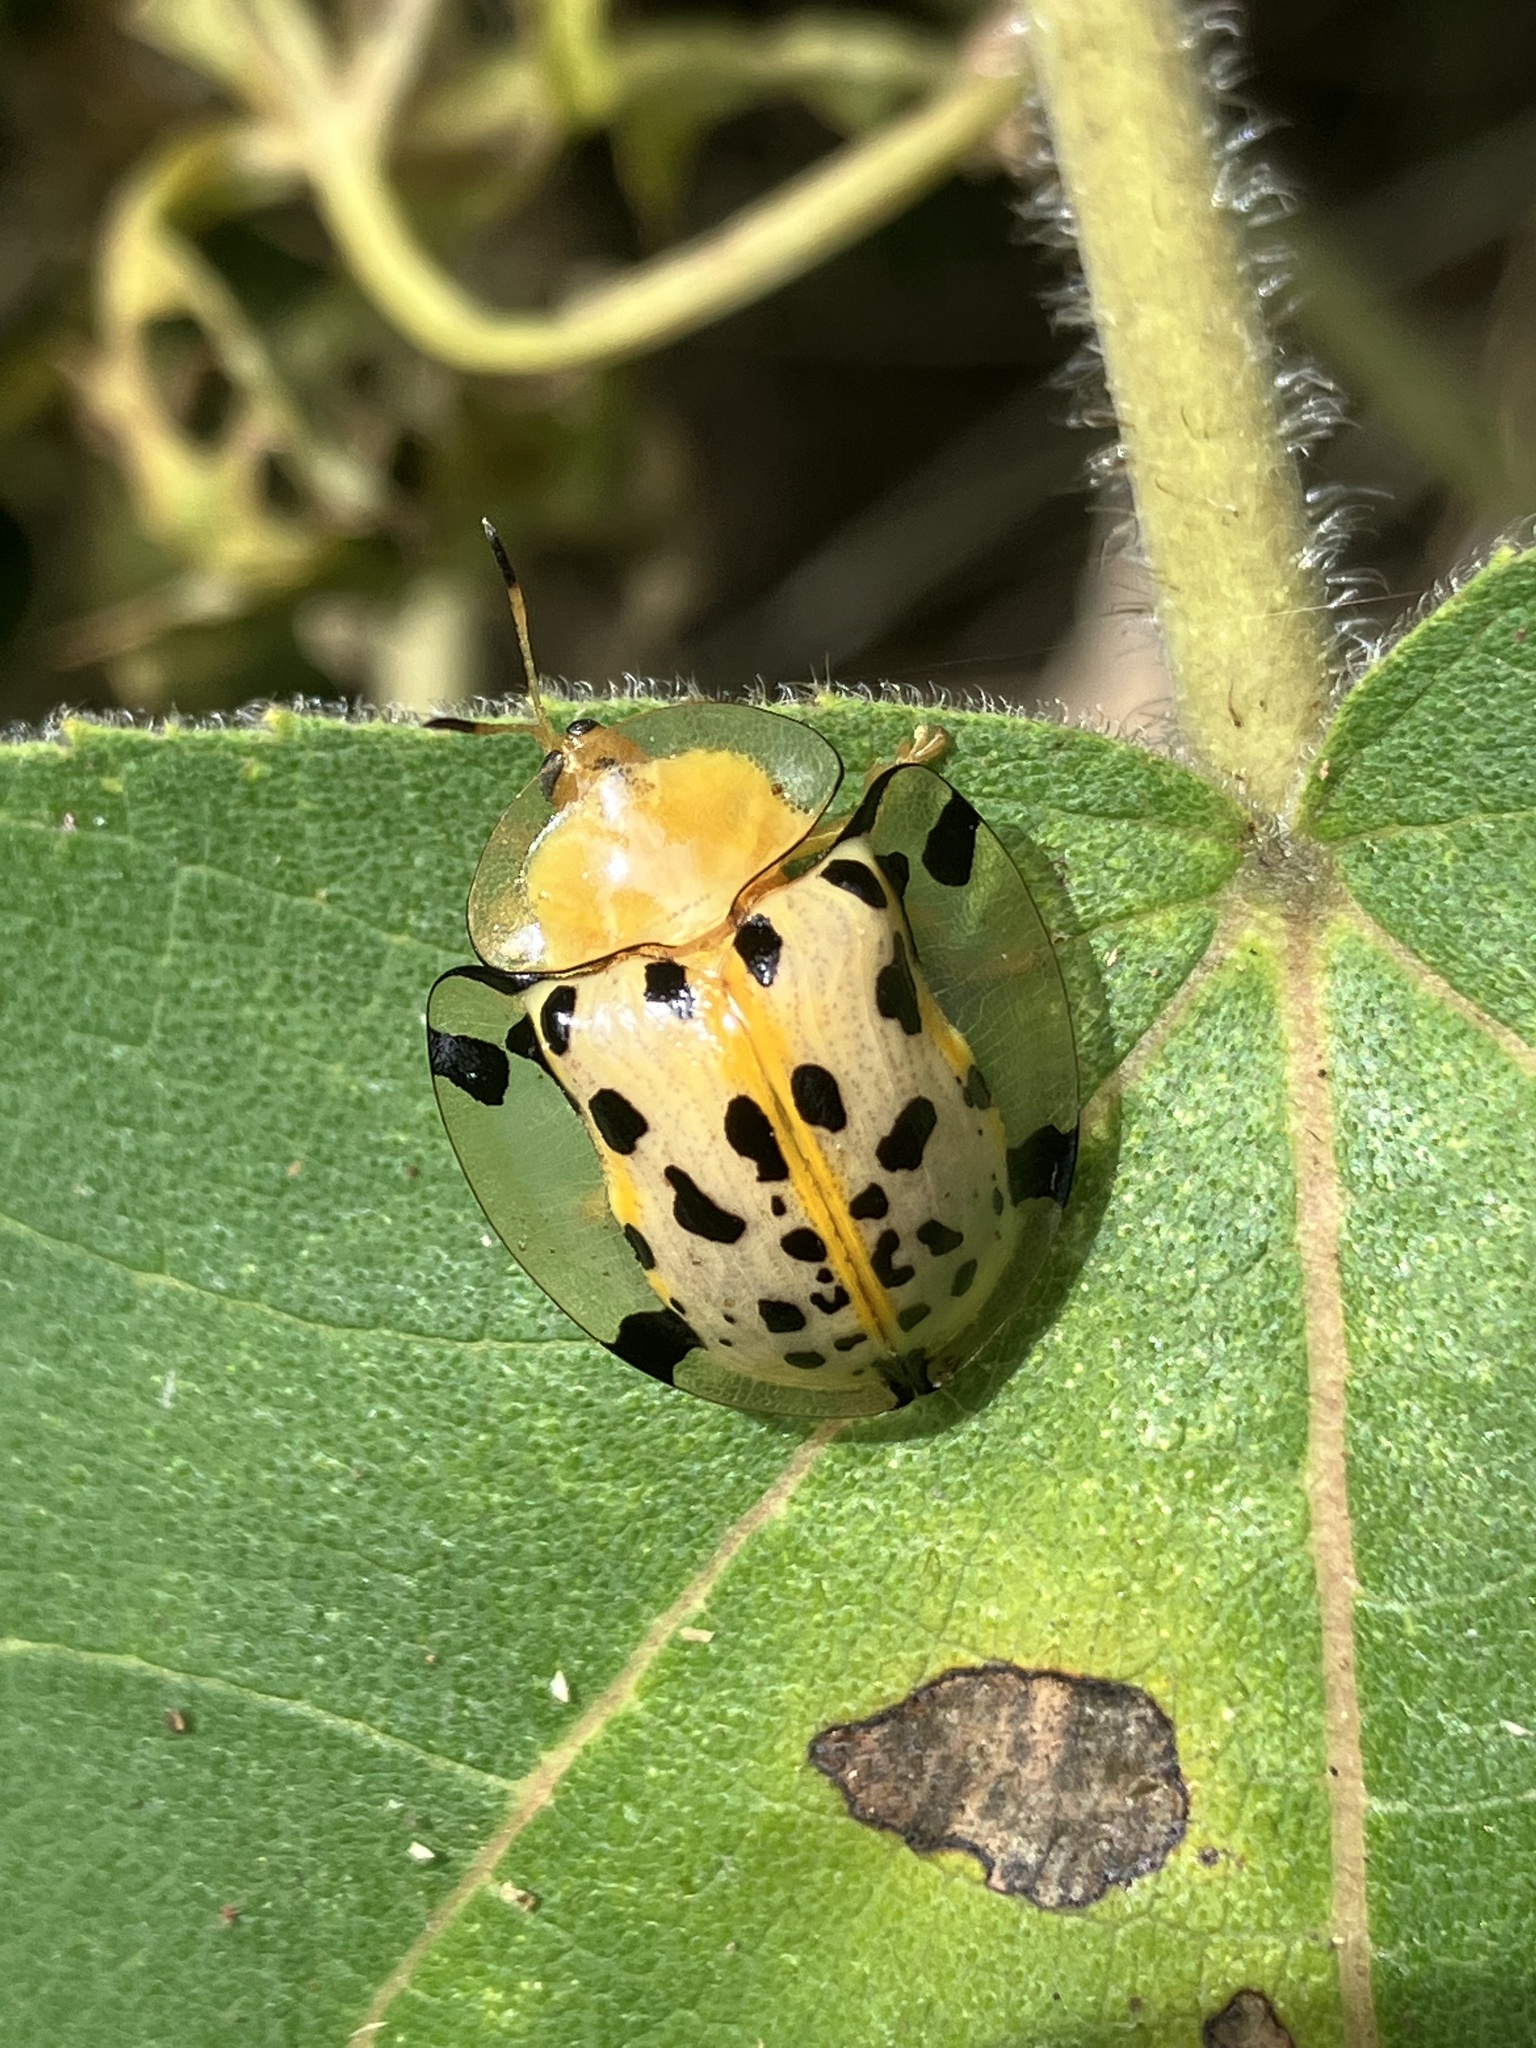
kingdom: Animalia
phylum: Arthropoda
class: Insecta
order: Coleoptera
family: Chrysomelidae
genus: Aspidimorpha
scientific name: Aspidimorpha miliaris
